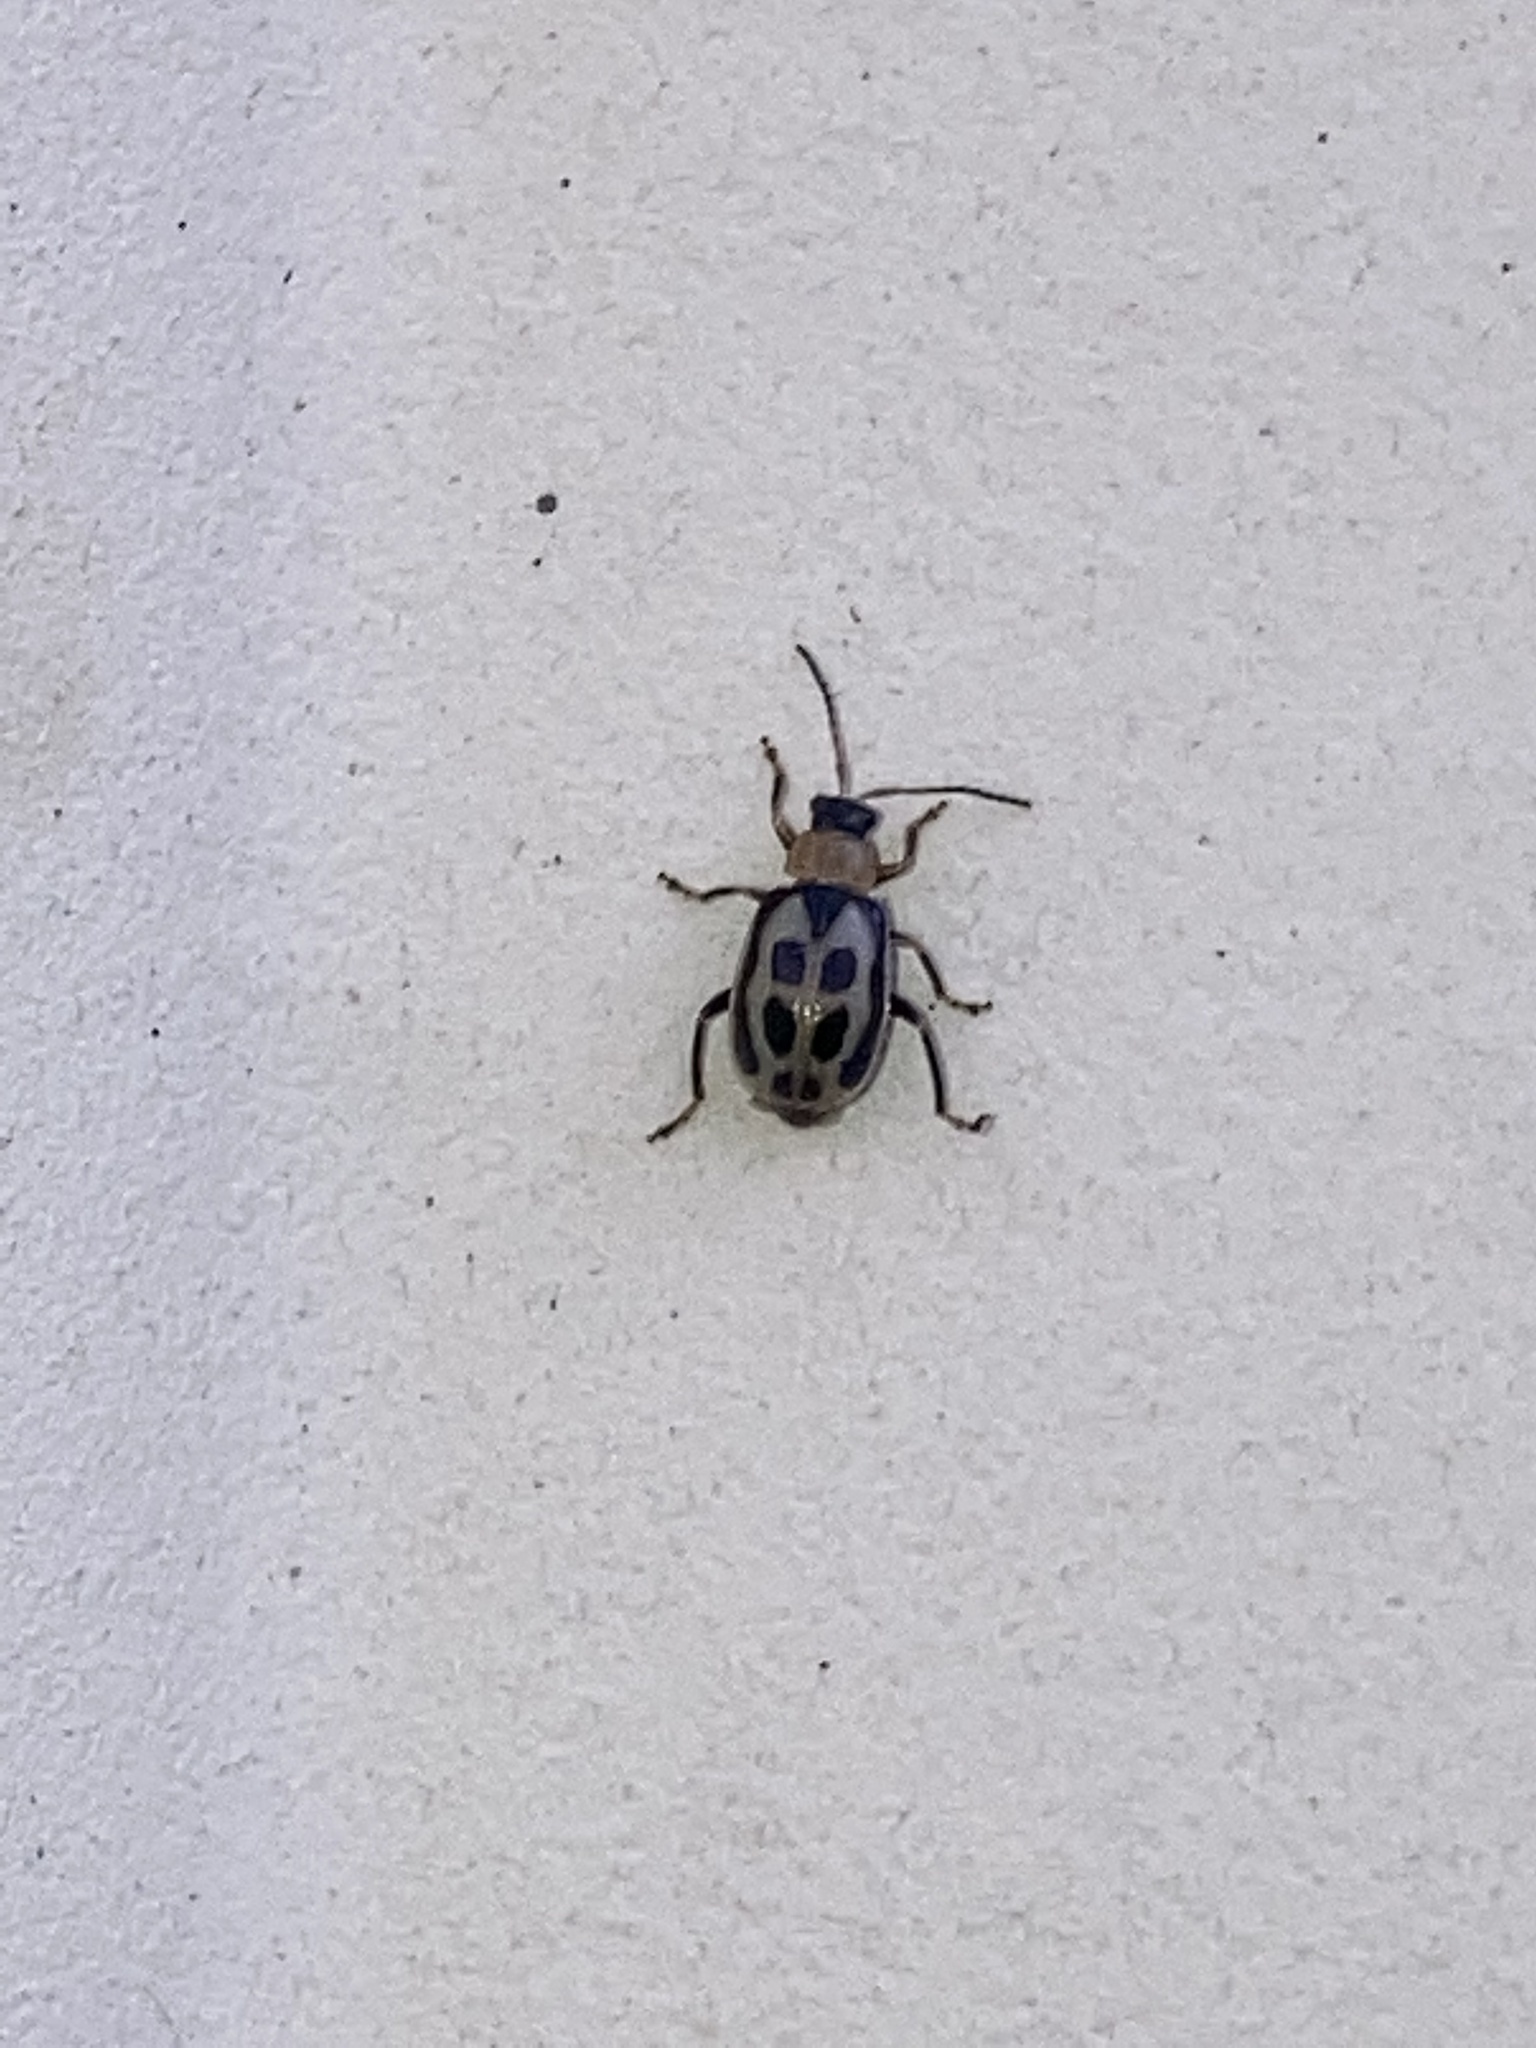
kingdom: Animalia
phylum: Arthropoda
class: Insecta
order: Coleoptera
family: Chrysomelidae
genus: Cerotoma
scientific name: Cerotoma trifurcata
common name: Bean leaf beetle
